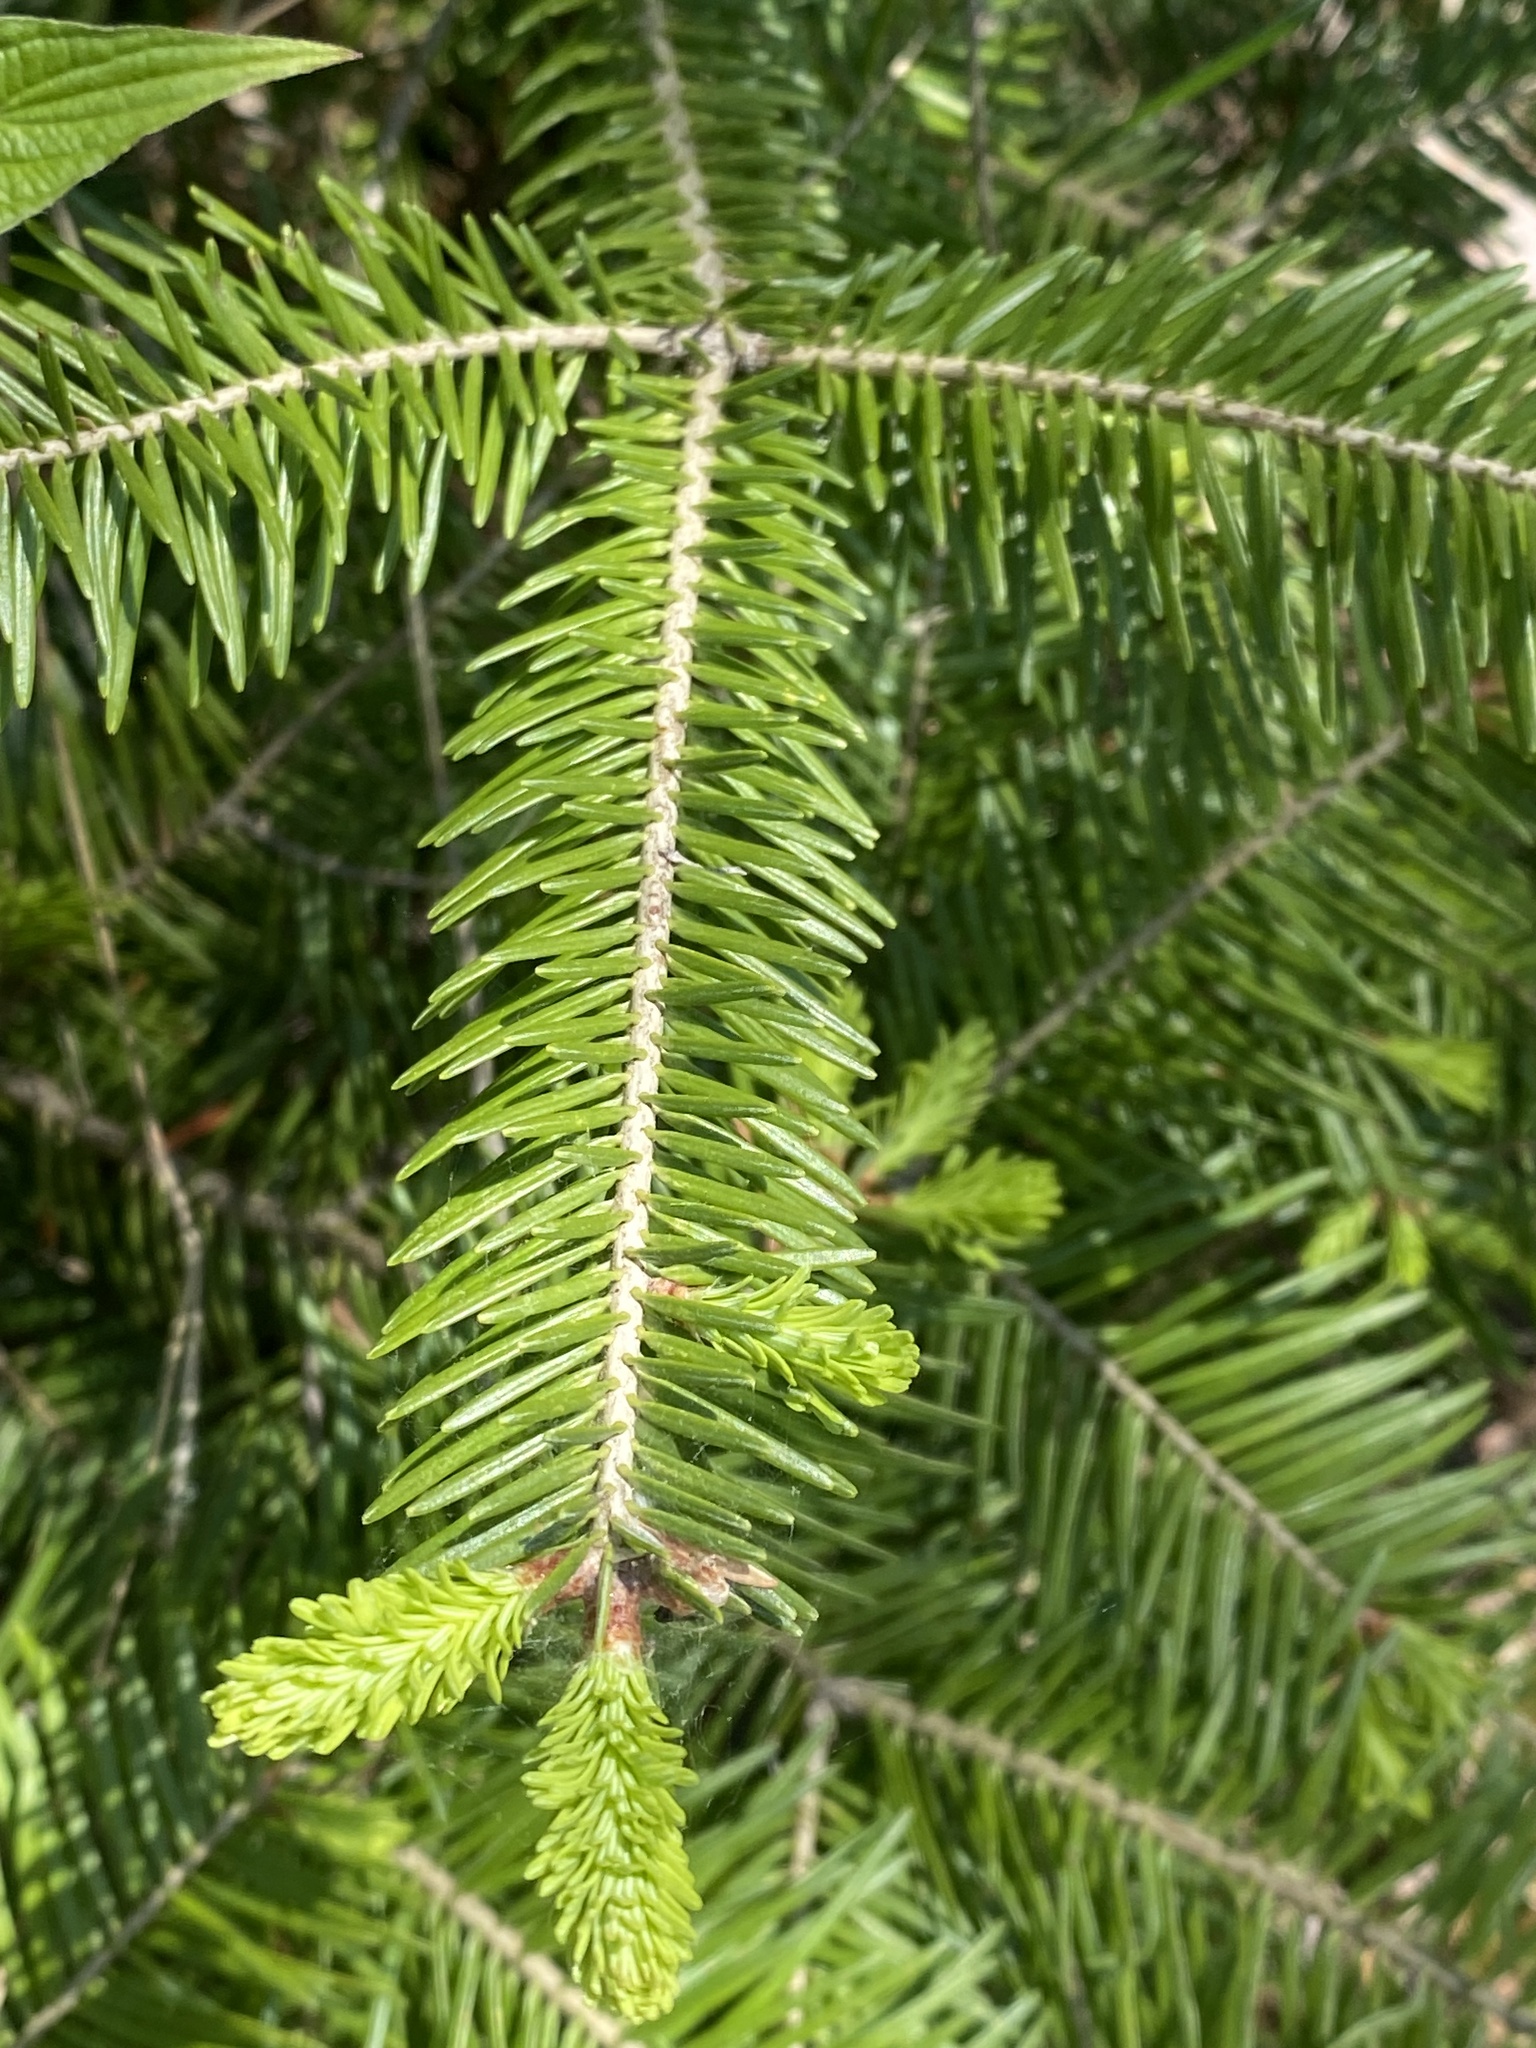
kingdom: Plantae
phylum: Tracheophyta
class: Pinopsida
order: Pinales
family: Pinaceae
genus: Abies
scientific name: Abies balsamea
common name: Balsam fir
